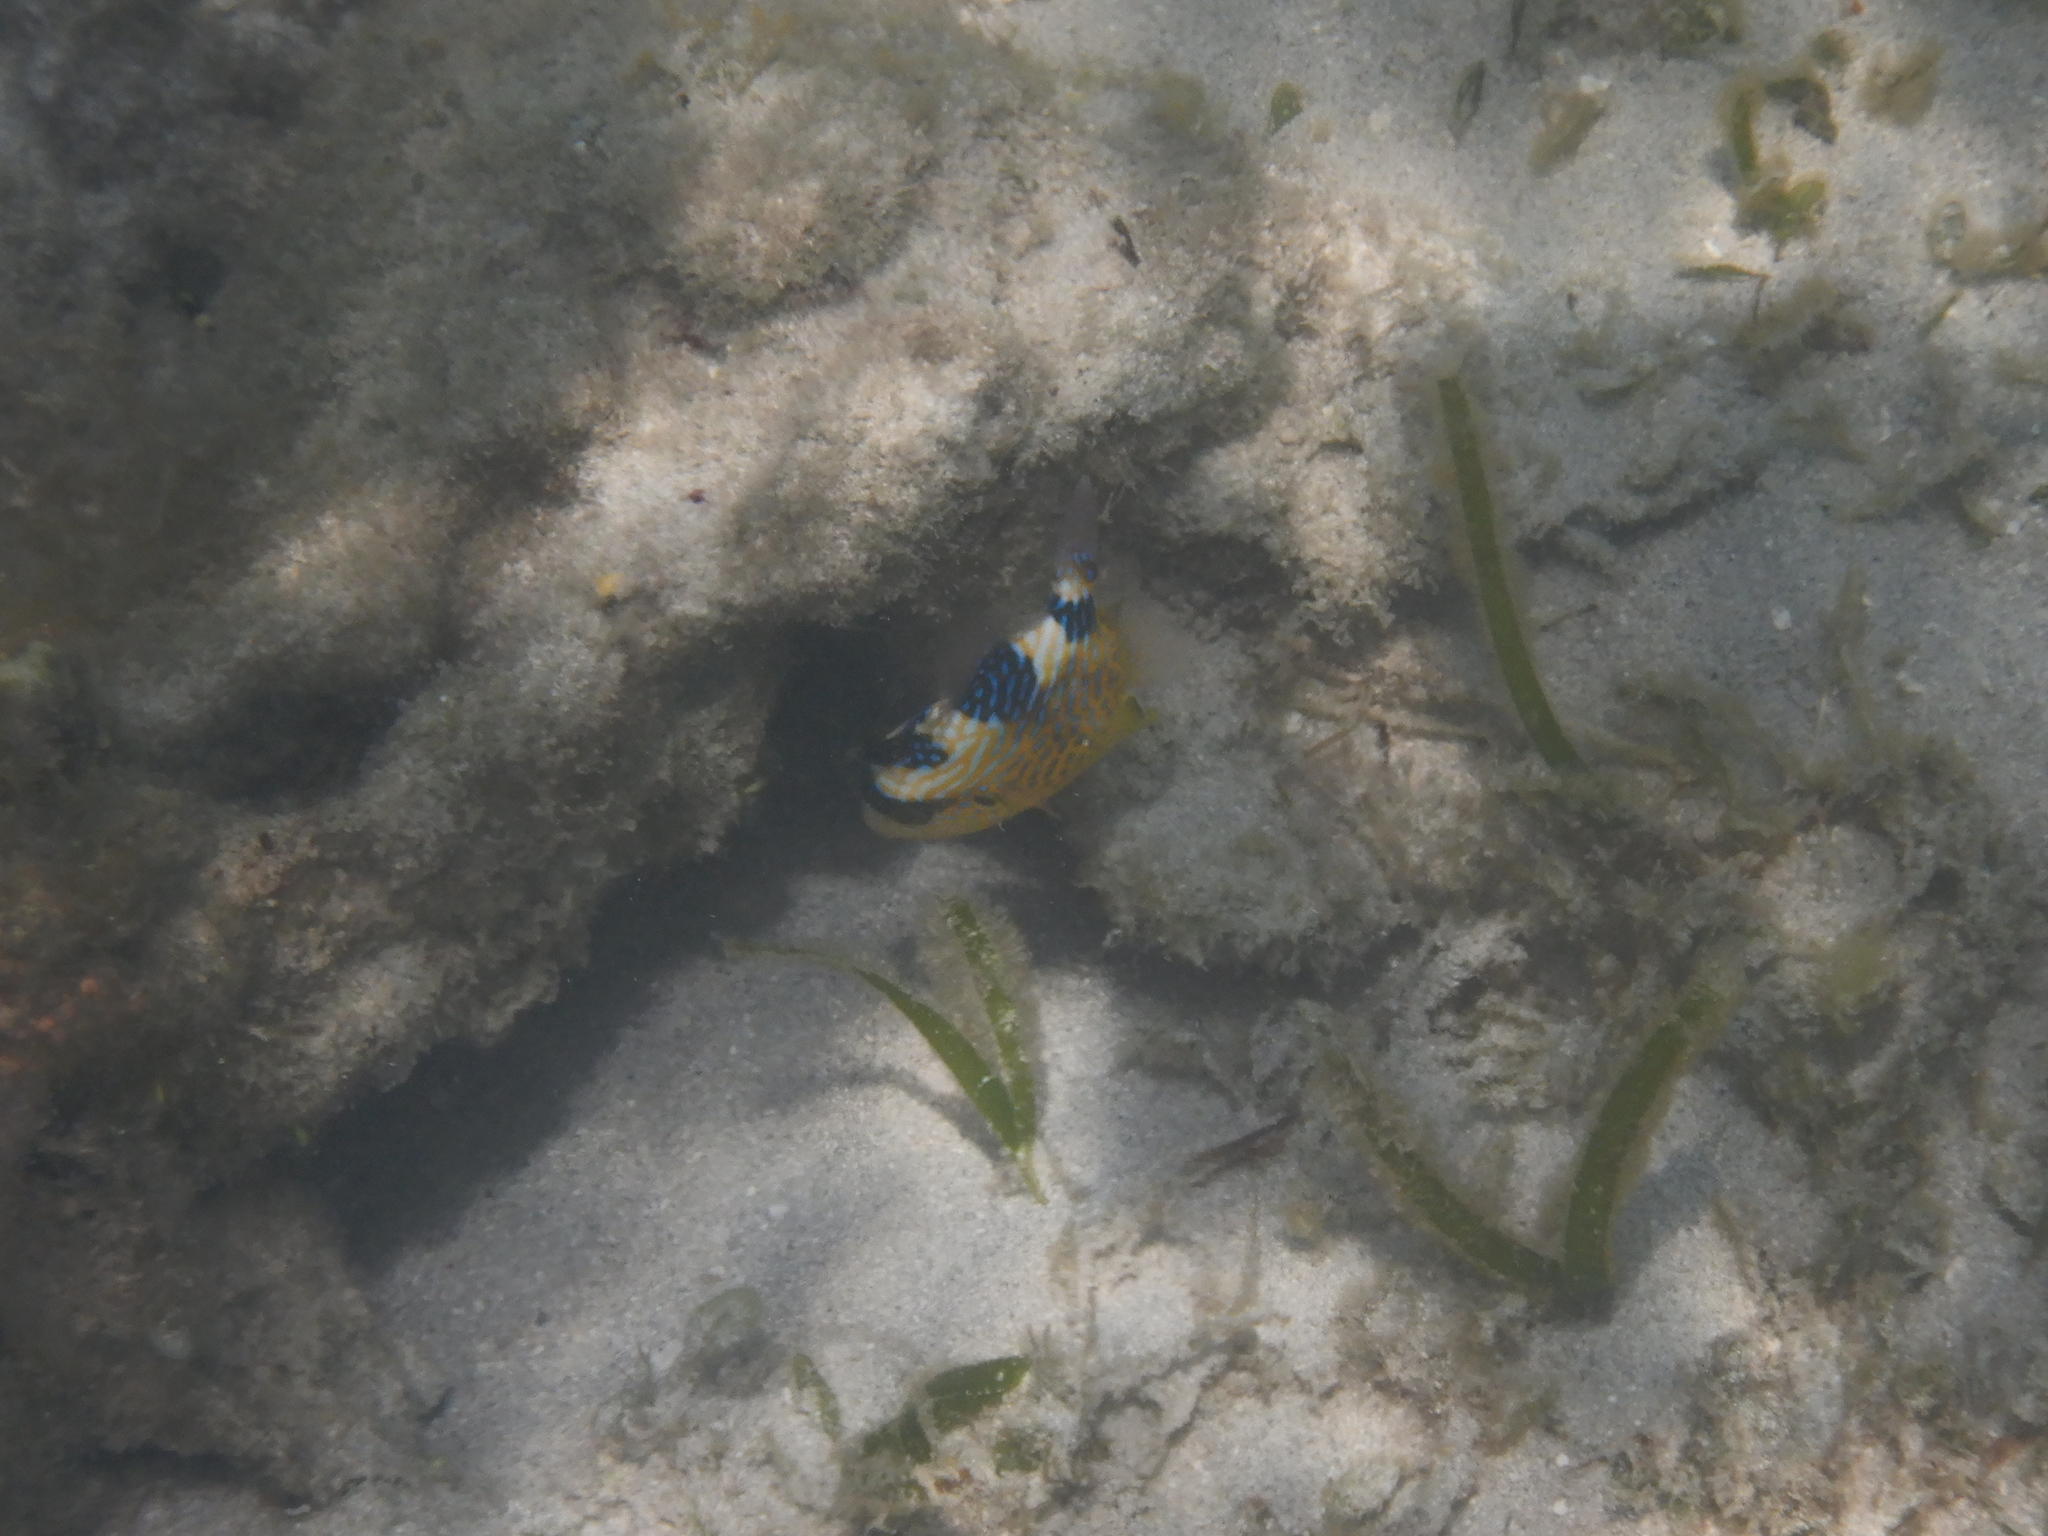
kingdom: Animalia
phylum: Chordata
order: Tetraodontiformes
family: Balistidae
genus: Pseudobalistes
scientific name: Pseudobalistes fuscus
